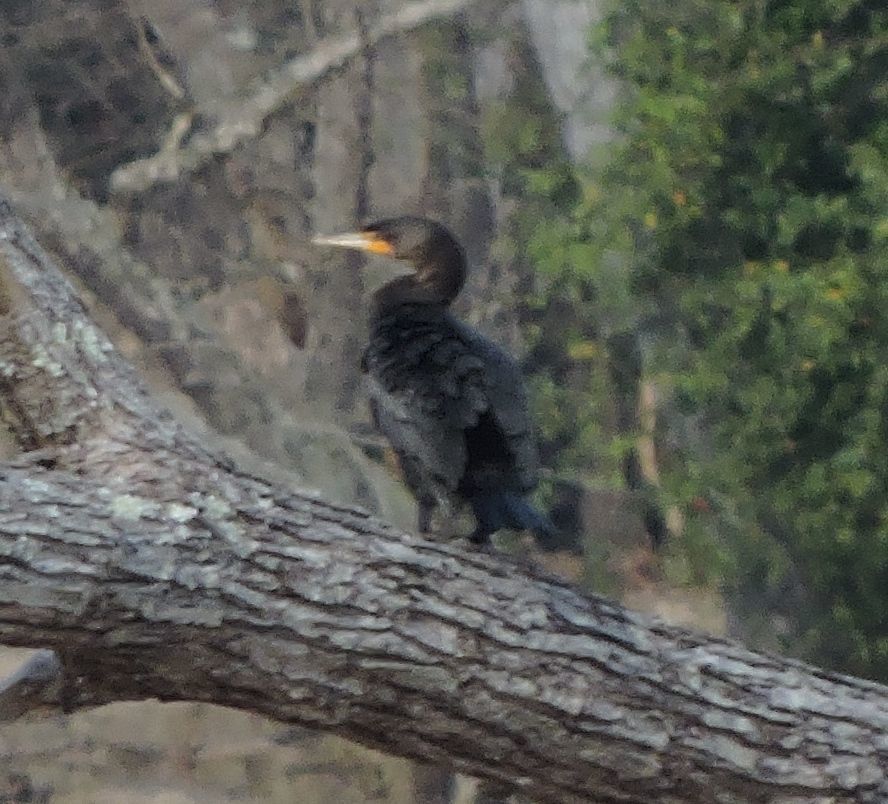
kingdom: Animalia
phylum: Chordata
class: Aves
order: Suliformes
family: Phalacrocoracidae
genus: Phalacrocorax
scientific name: Phalacrocorax auritus
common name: Double-crested cormorant
